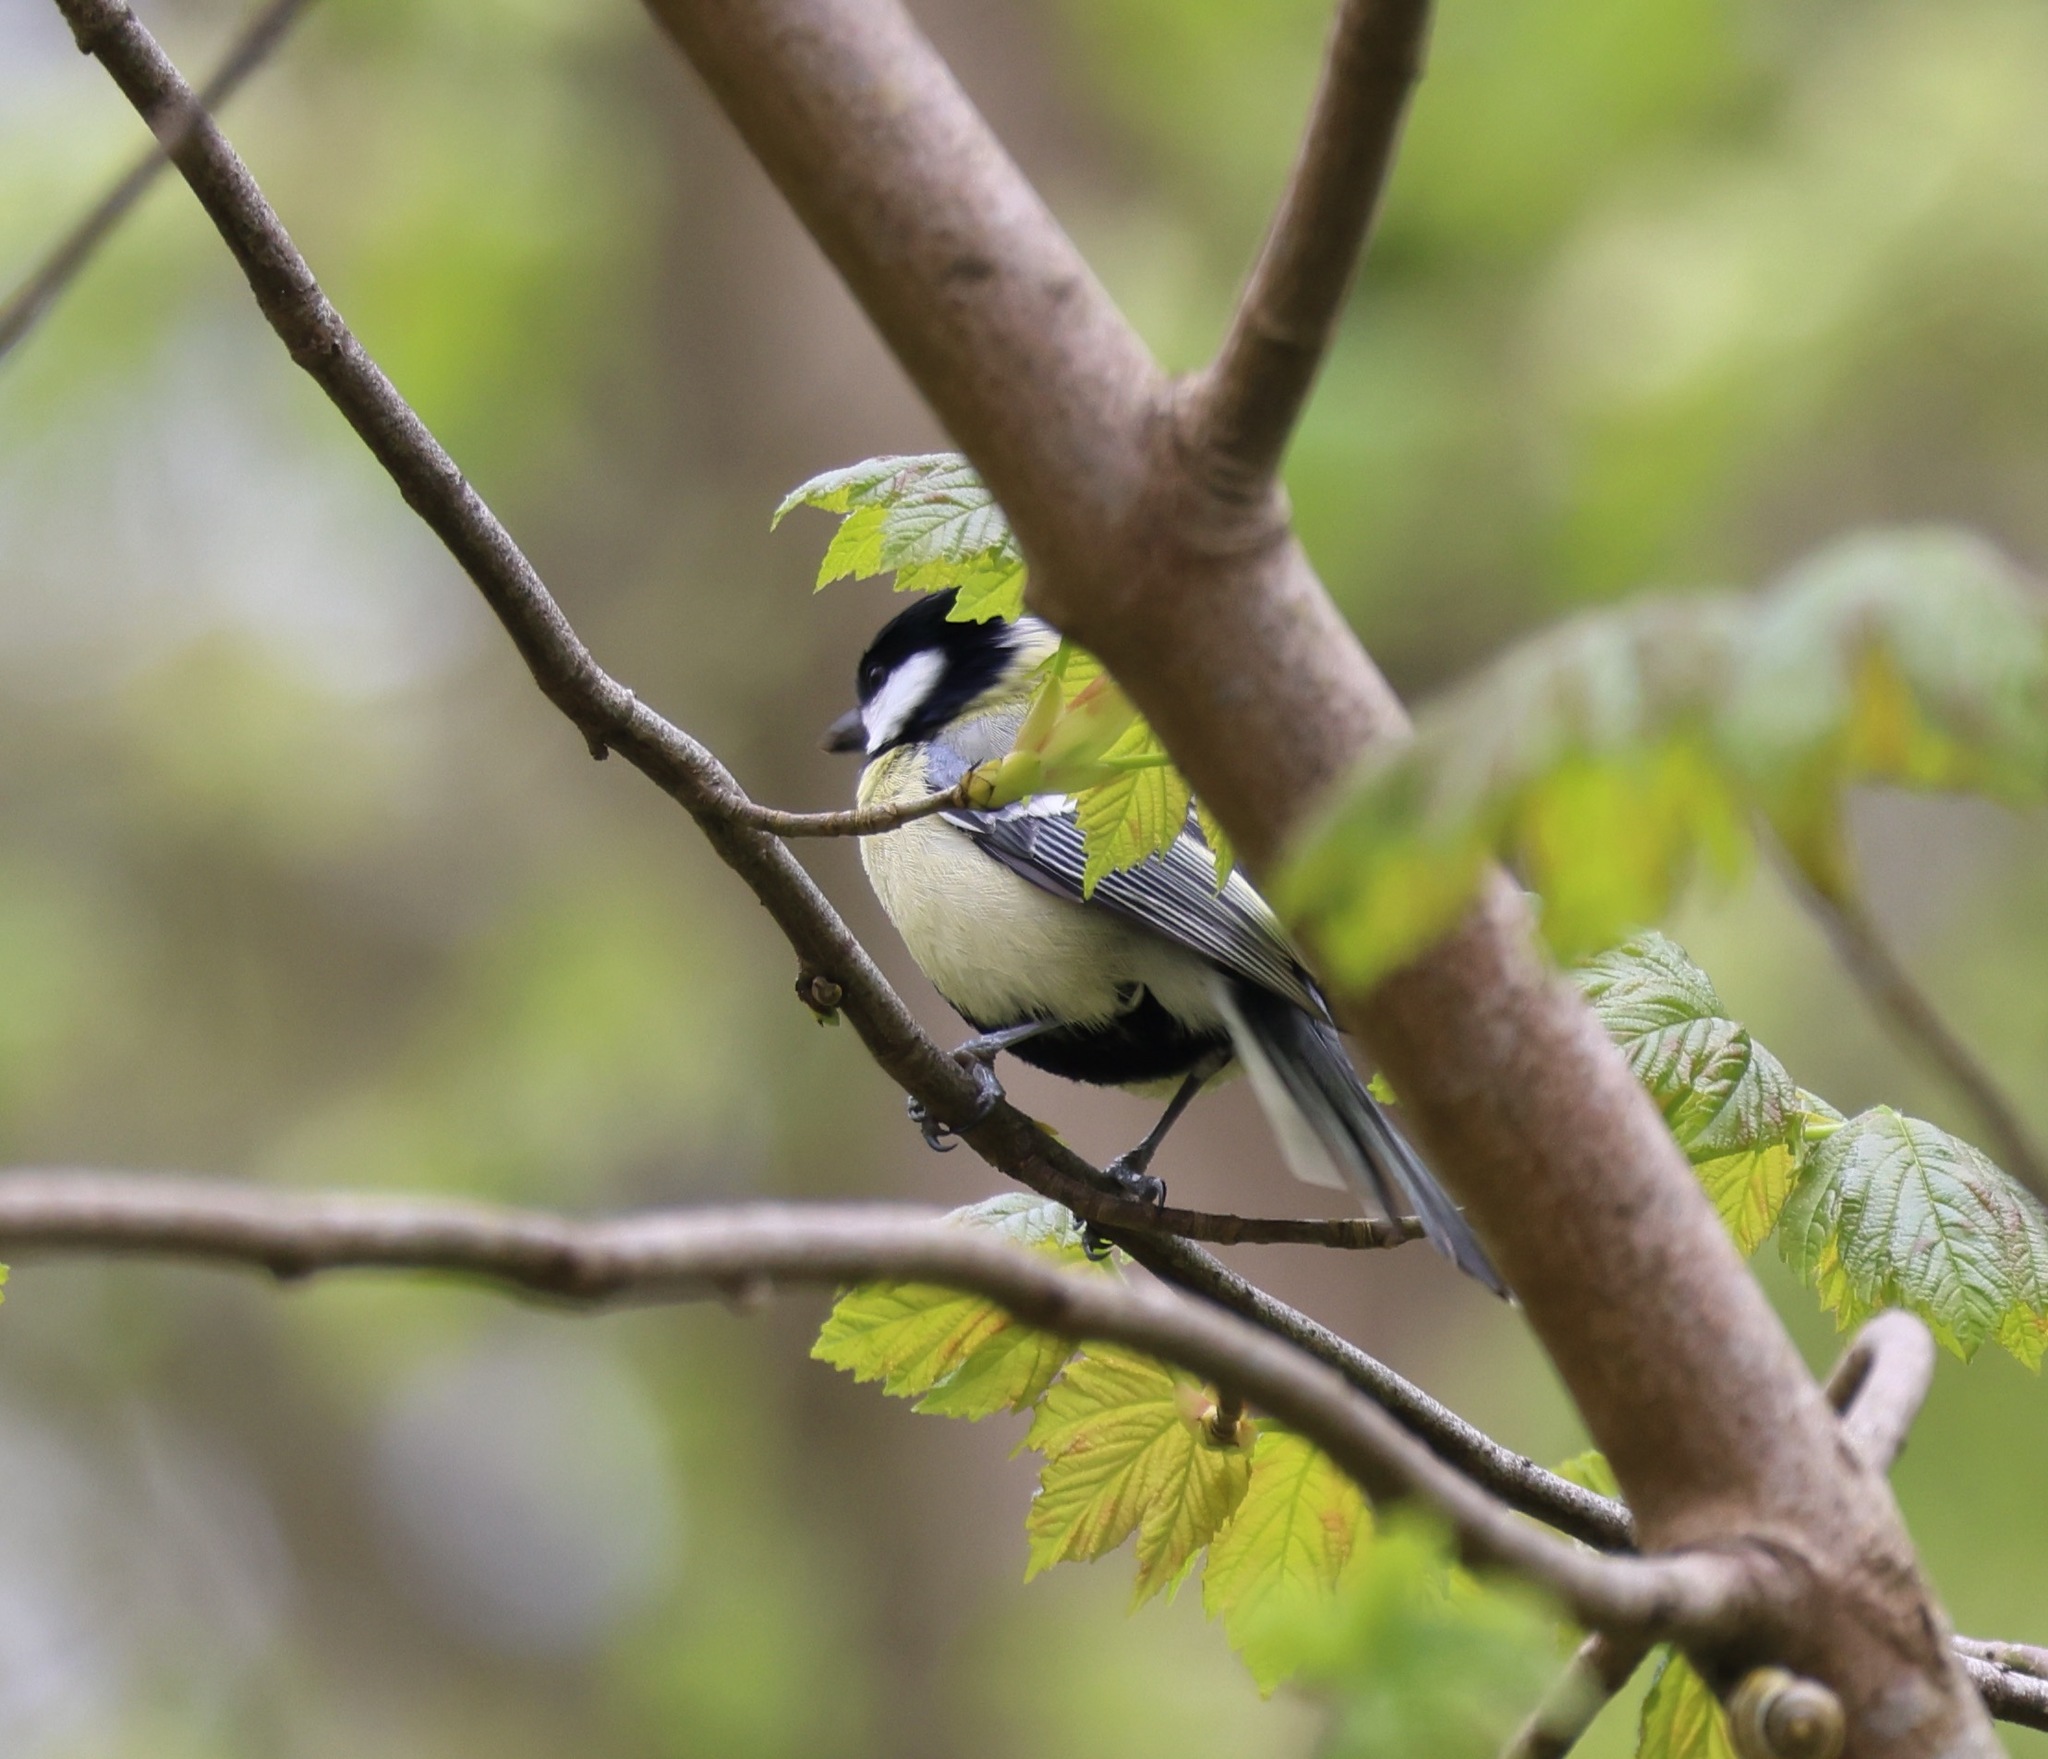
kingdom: Animalia
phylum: Chordata
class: Aves
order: Passeriformes
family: Paridae
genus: Parus
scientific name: Parus major
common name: Great tit
